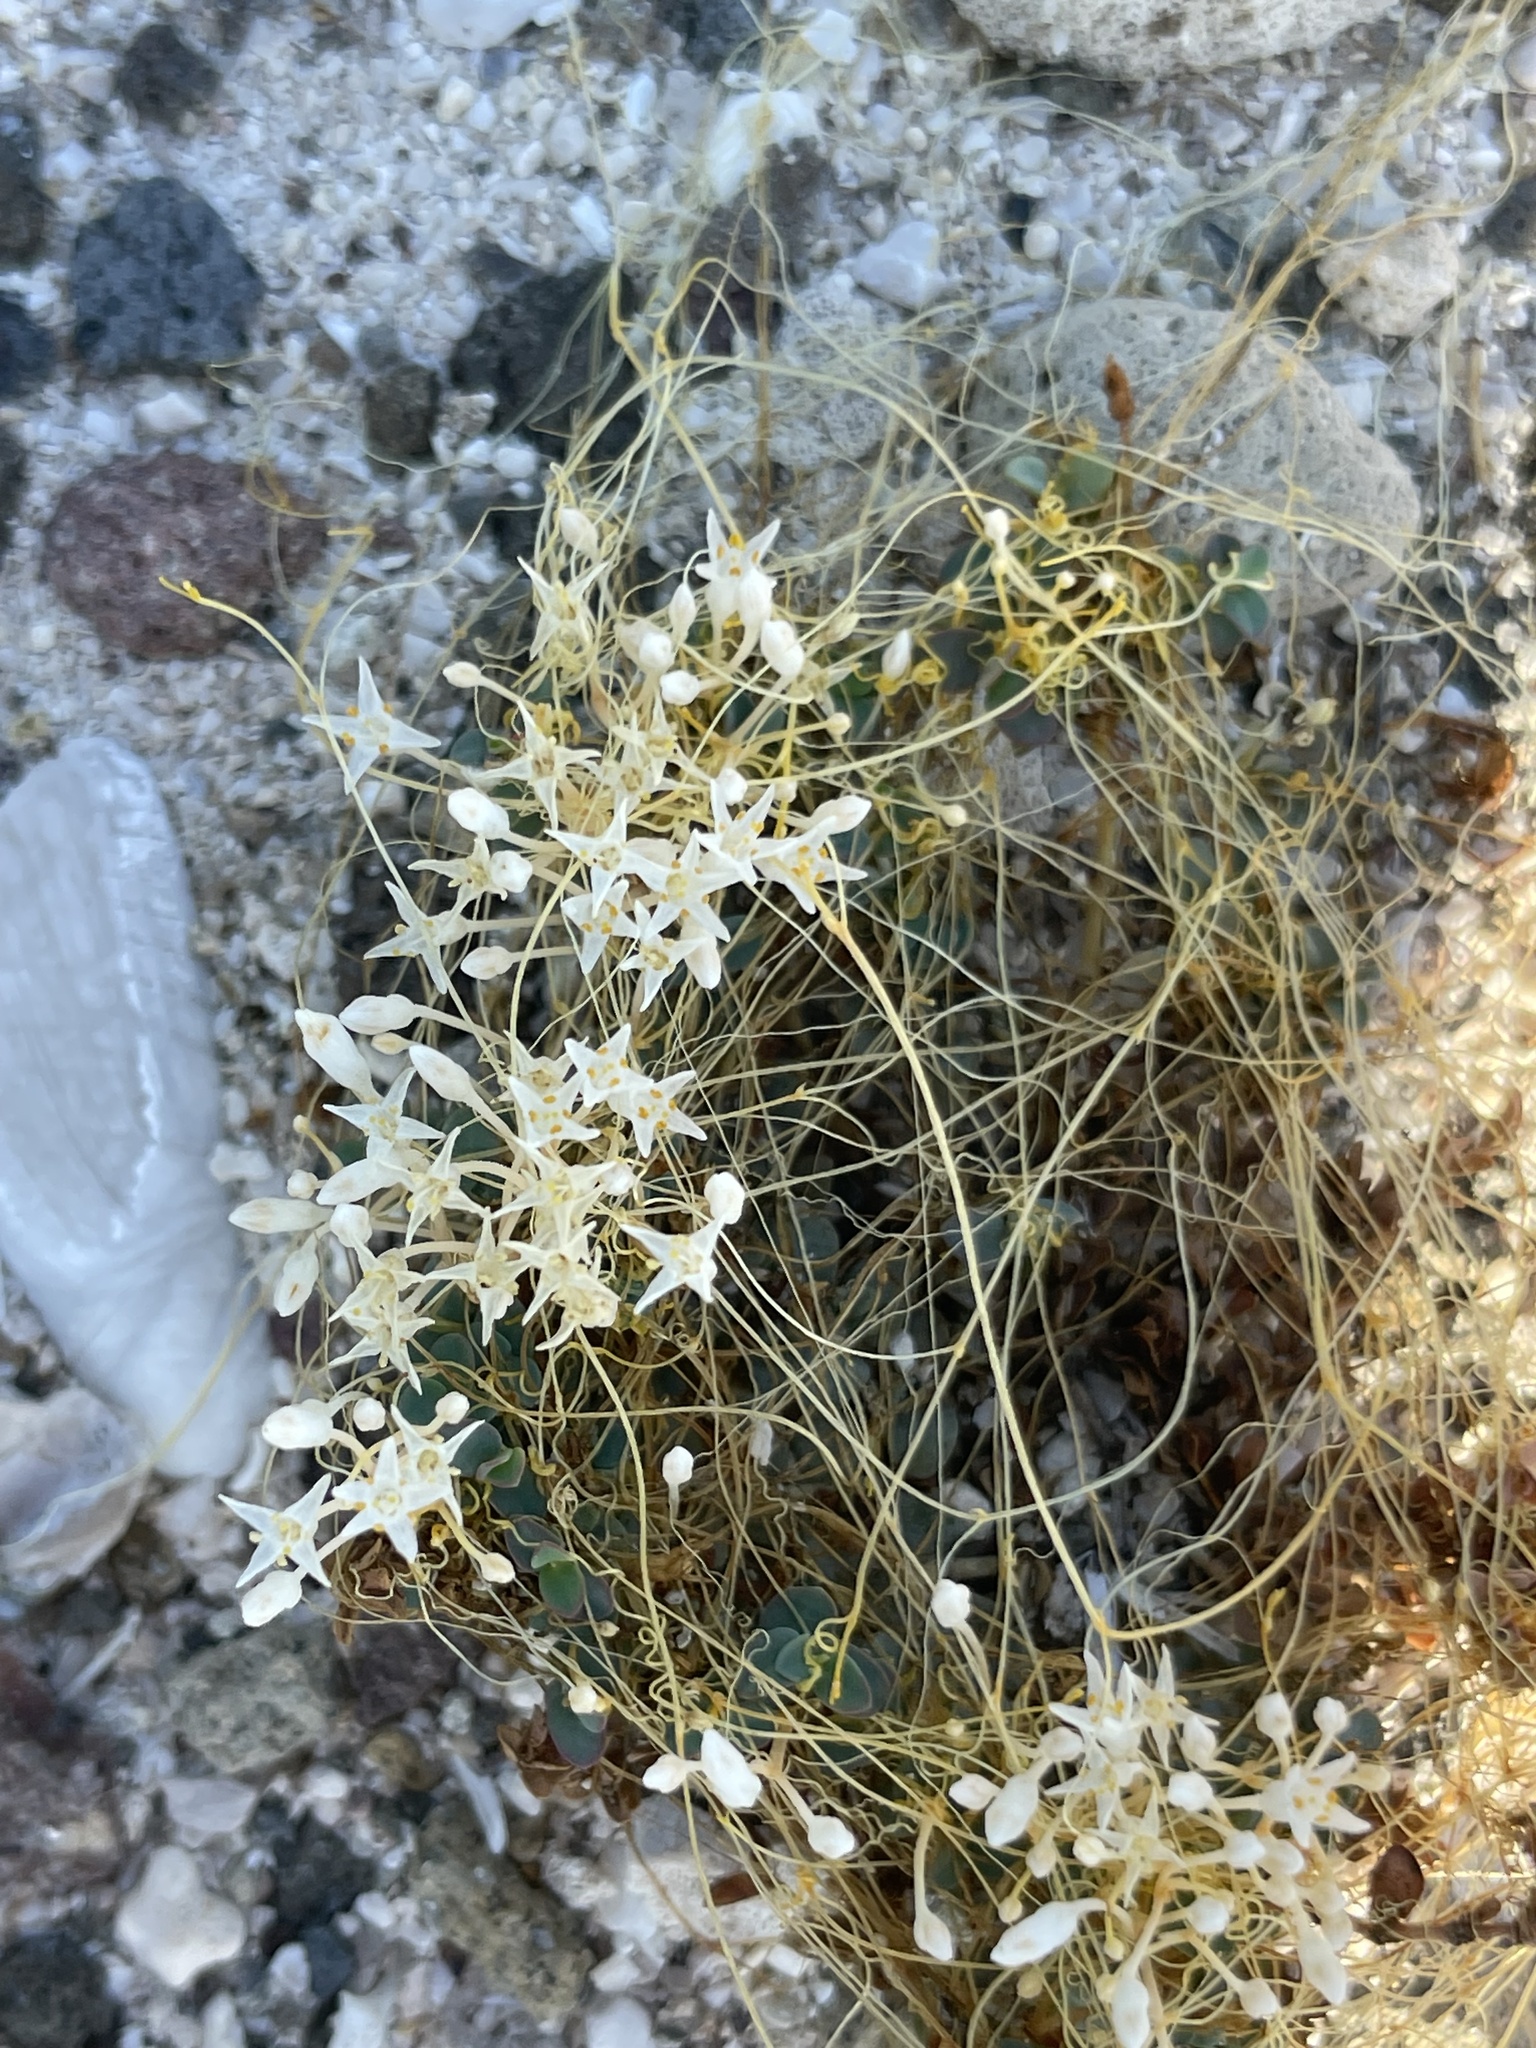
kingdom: Plantae
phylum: Tracheophyta
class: Magnoliopsida
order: Solanales
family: Convolvulaceae
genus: Cuscuta
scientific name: Cuscuta leptantha
